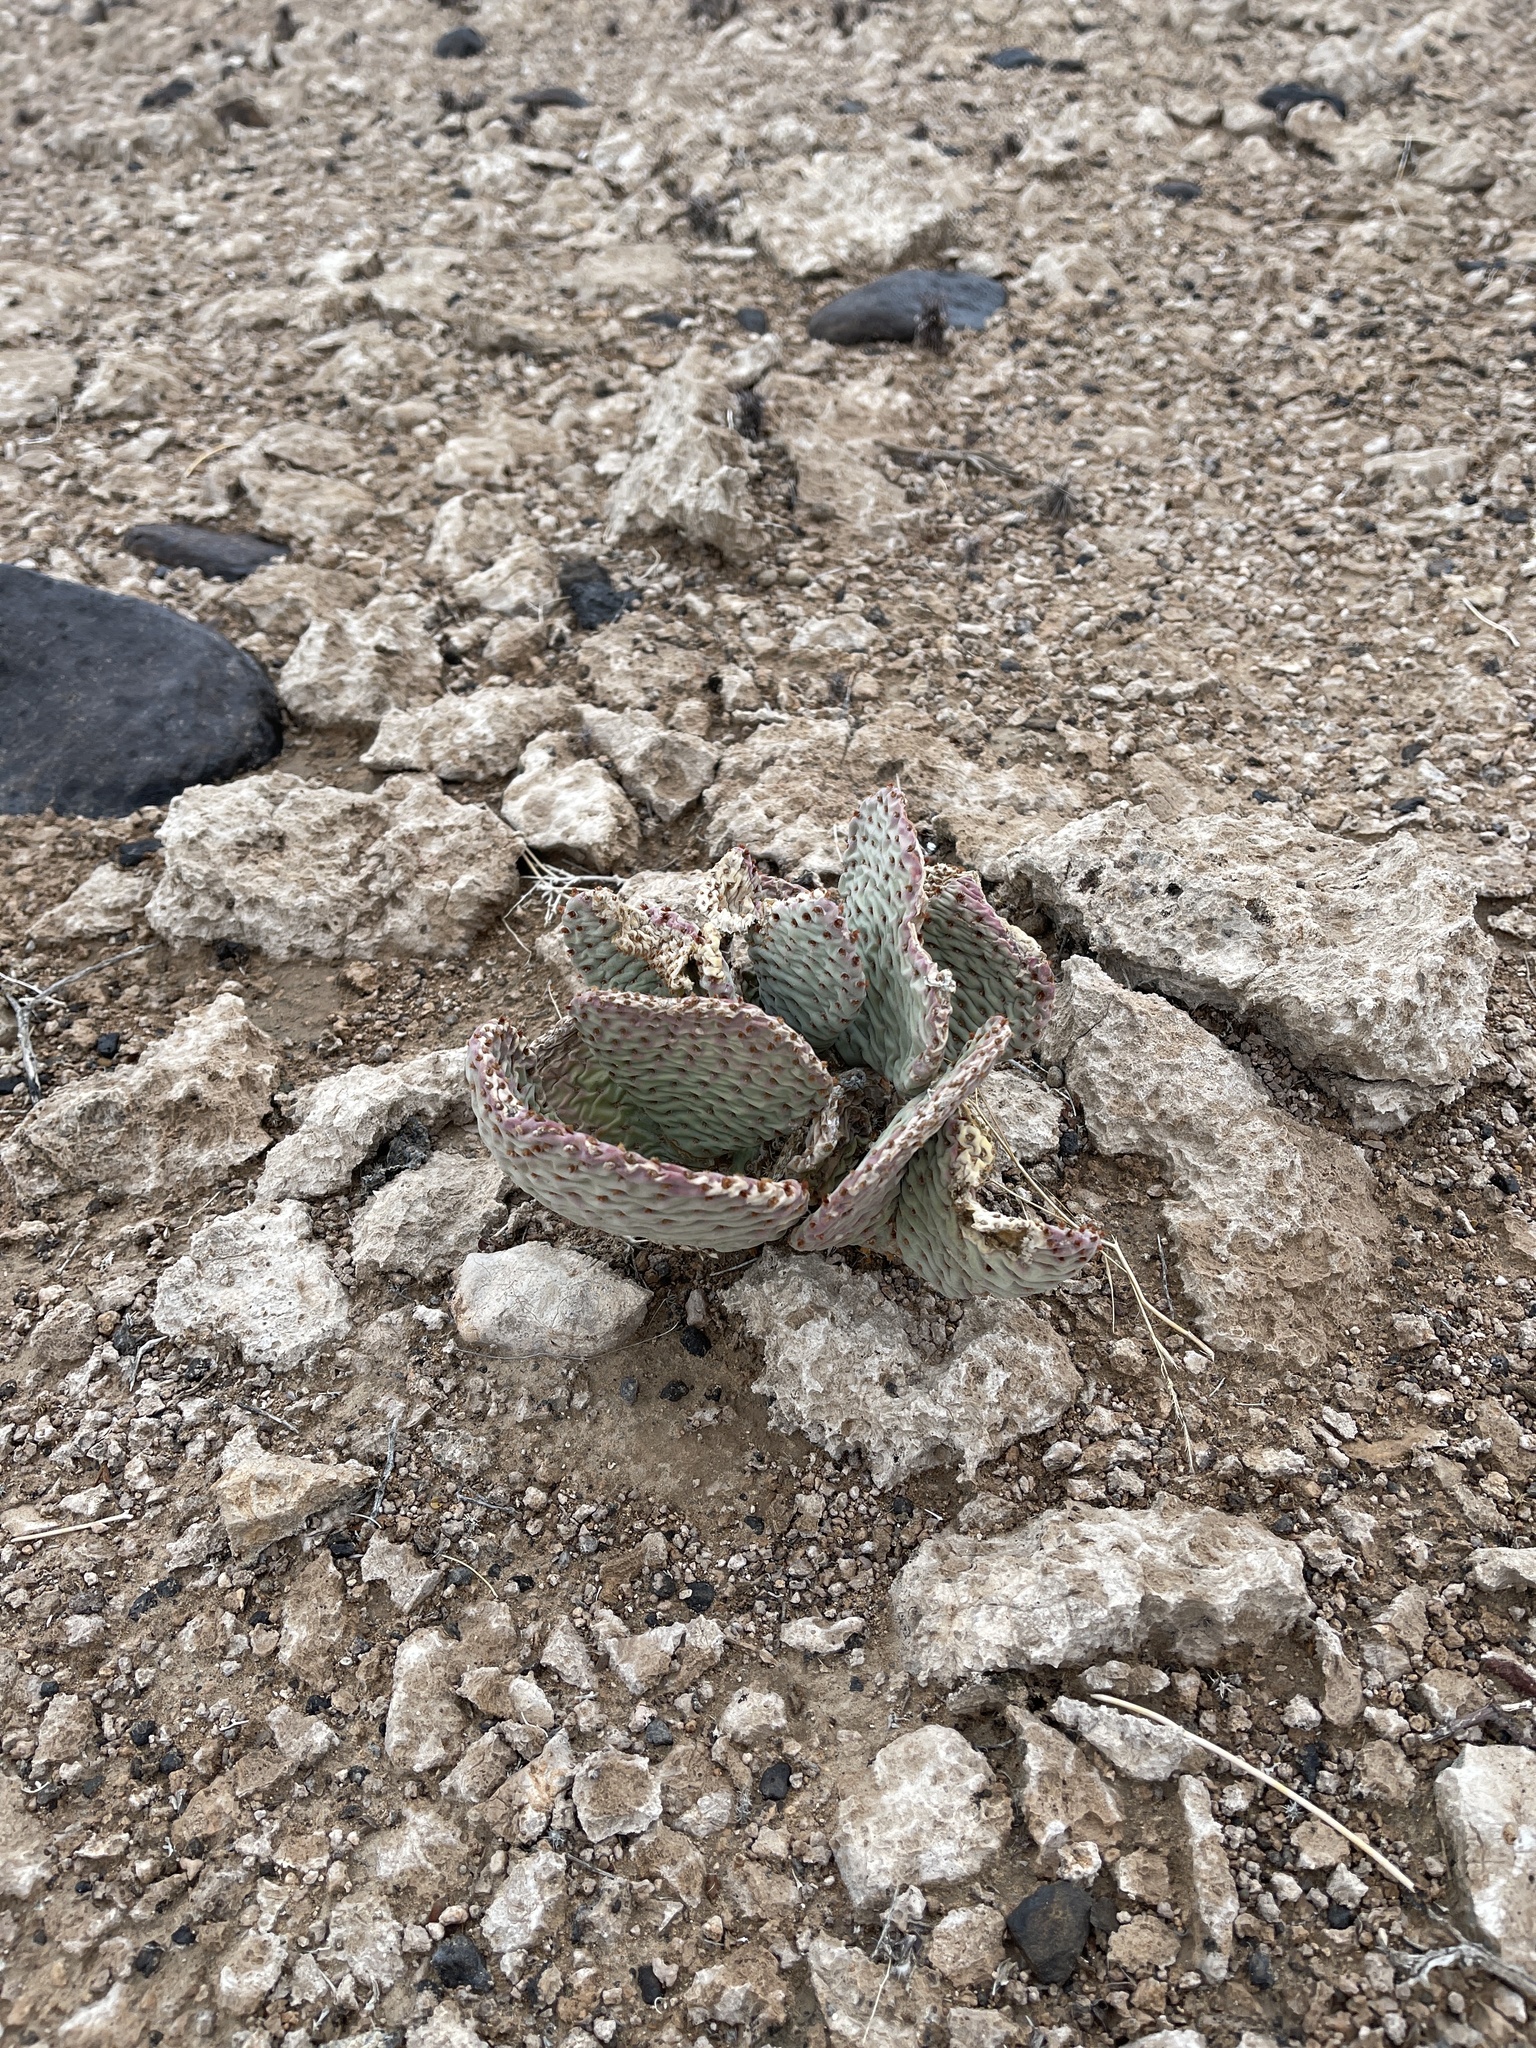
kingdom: Plantae
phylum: Tracheophyta
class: Magnoliopsida
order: Caryophyllales
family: Cactaceae
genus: Opuntia
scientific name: Opuntia basilaris
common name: Beavertail prickly-pear
